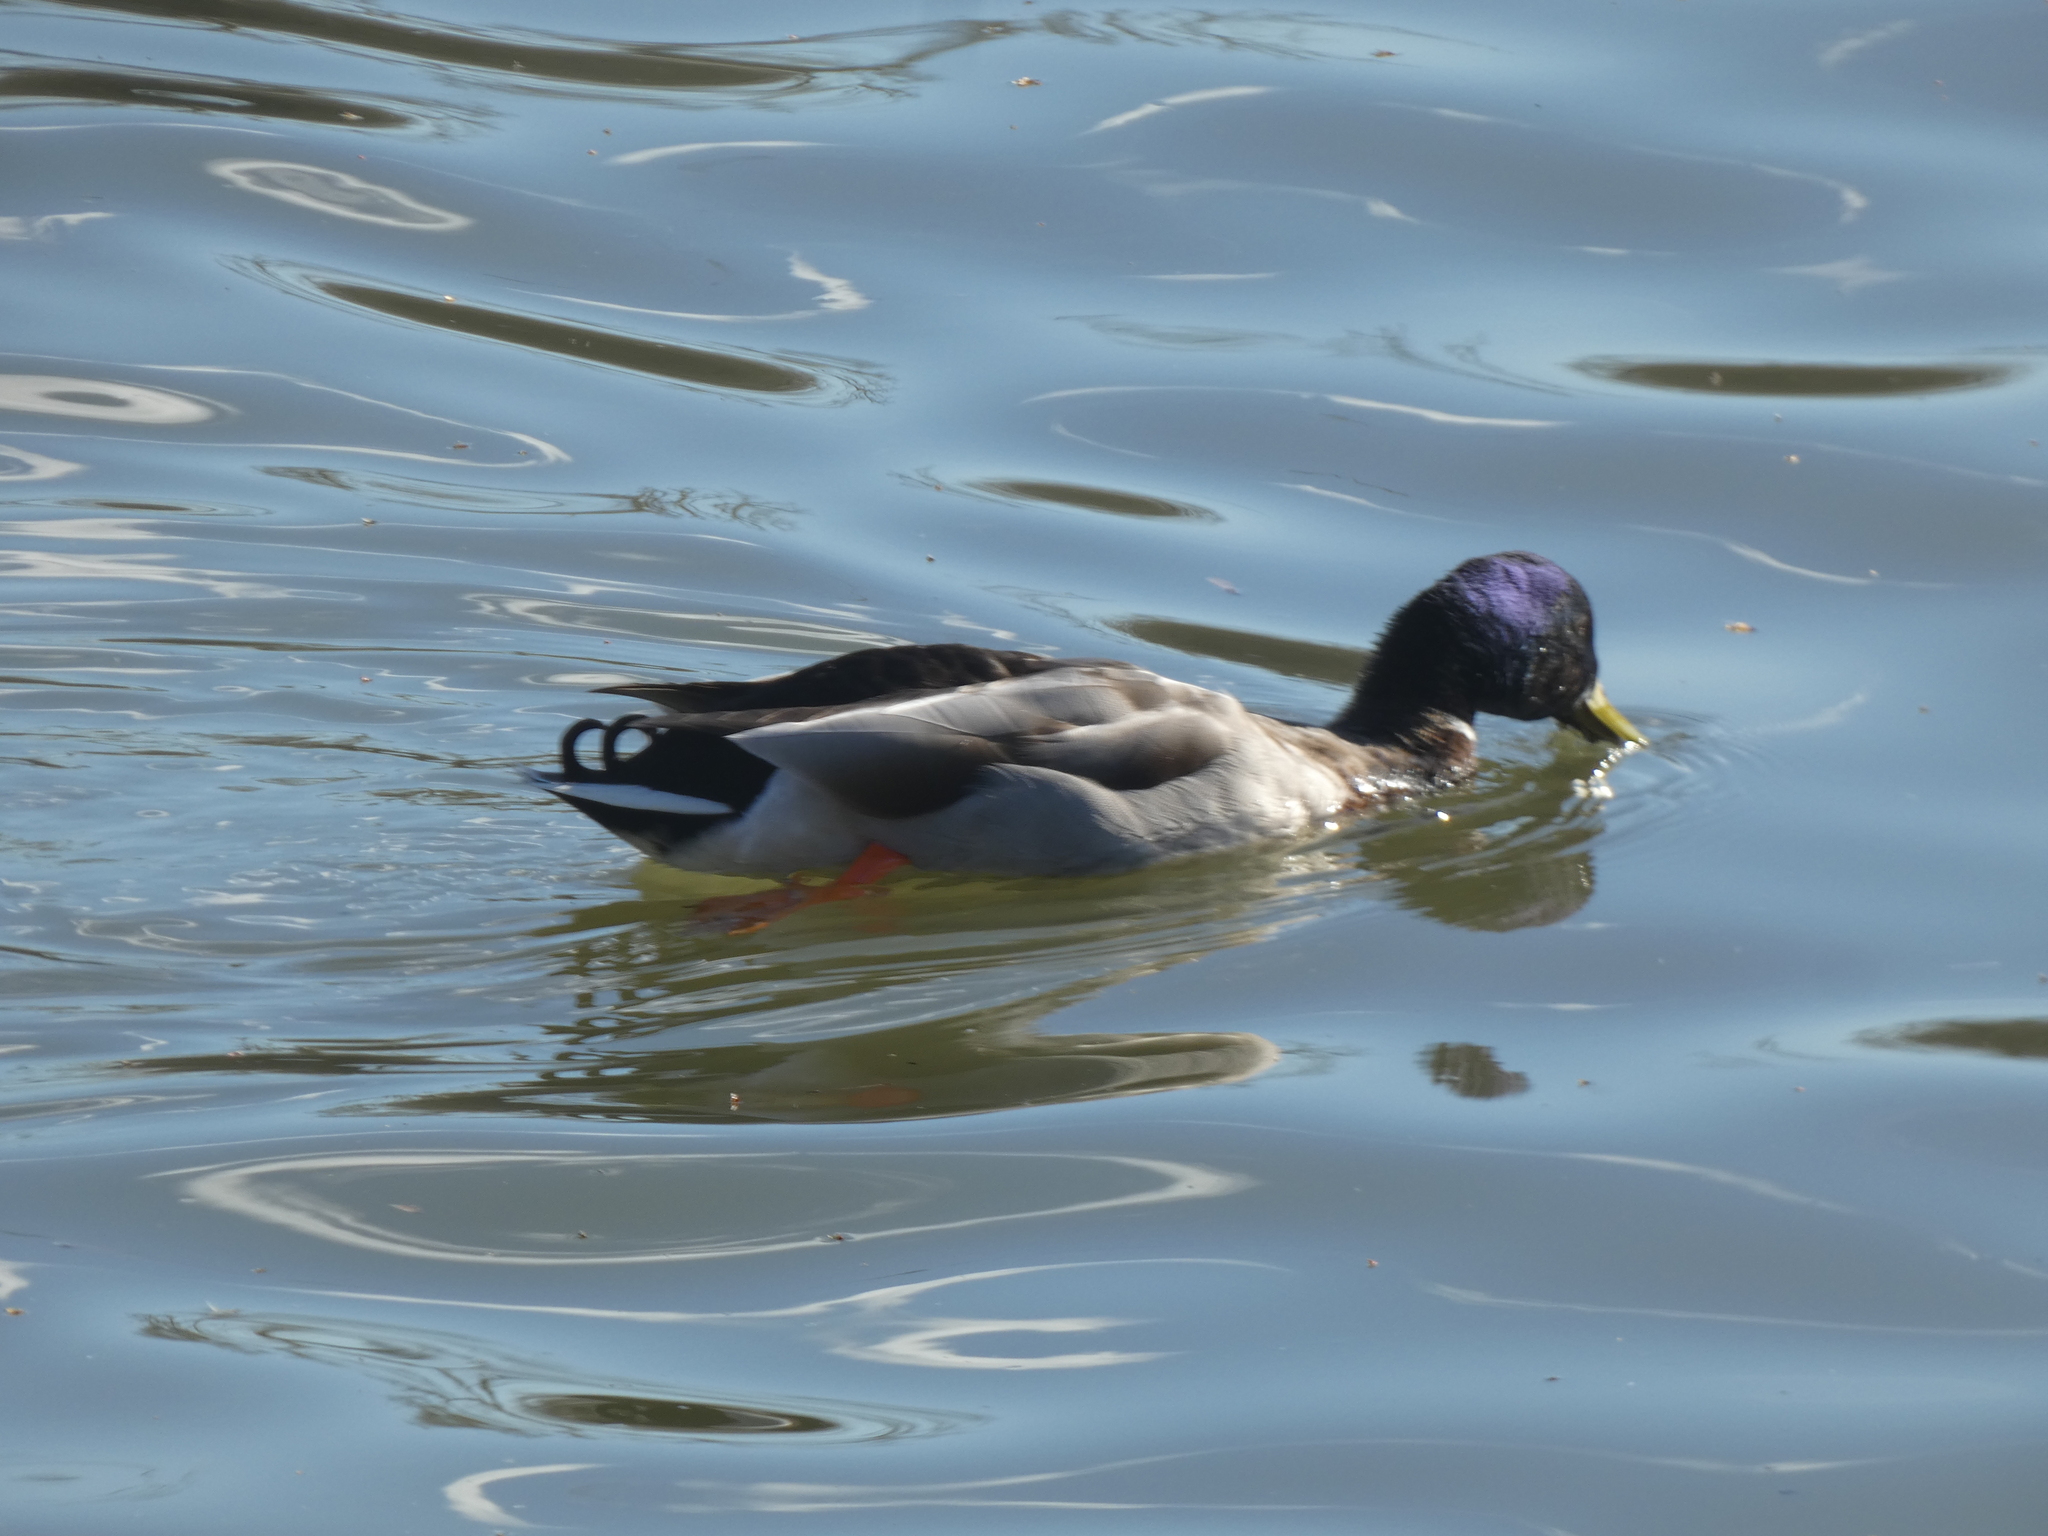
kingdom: Animalia
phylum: Chordata
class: Aves
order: Anseriformes
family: Anatidae
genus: Anas
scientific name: Anas platyrhynchos
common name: Mallard
